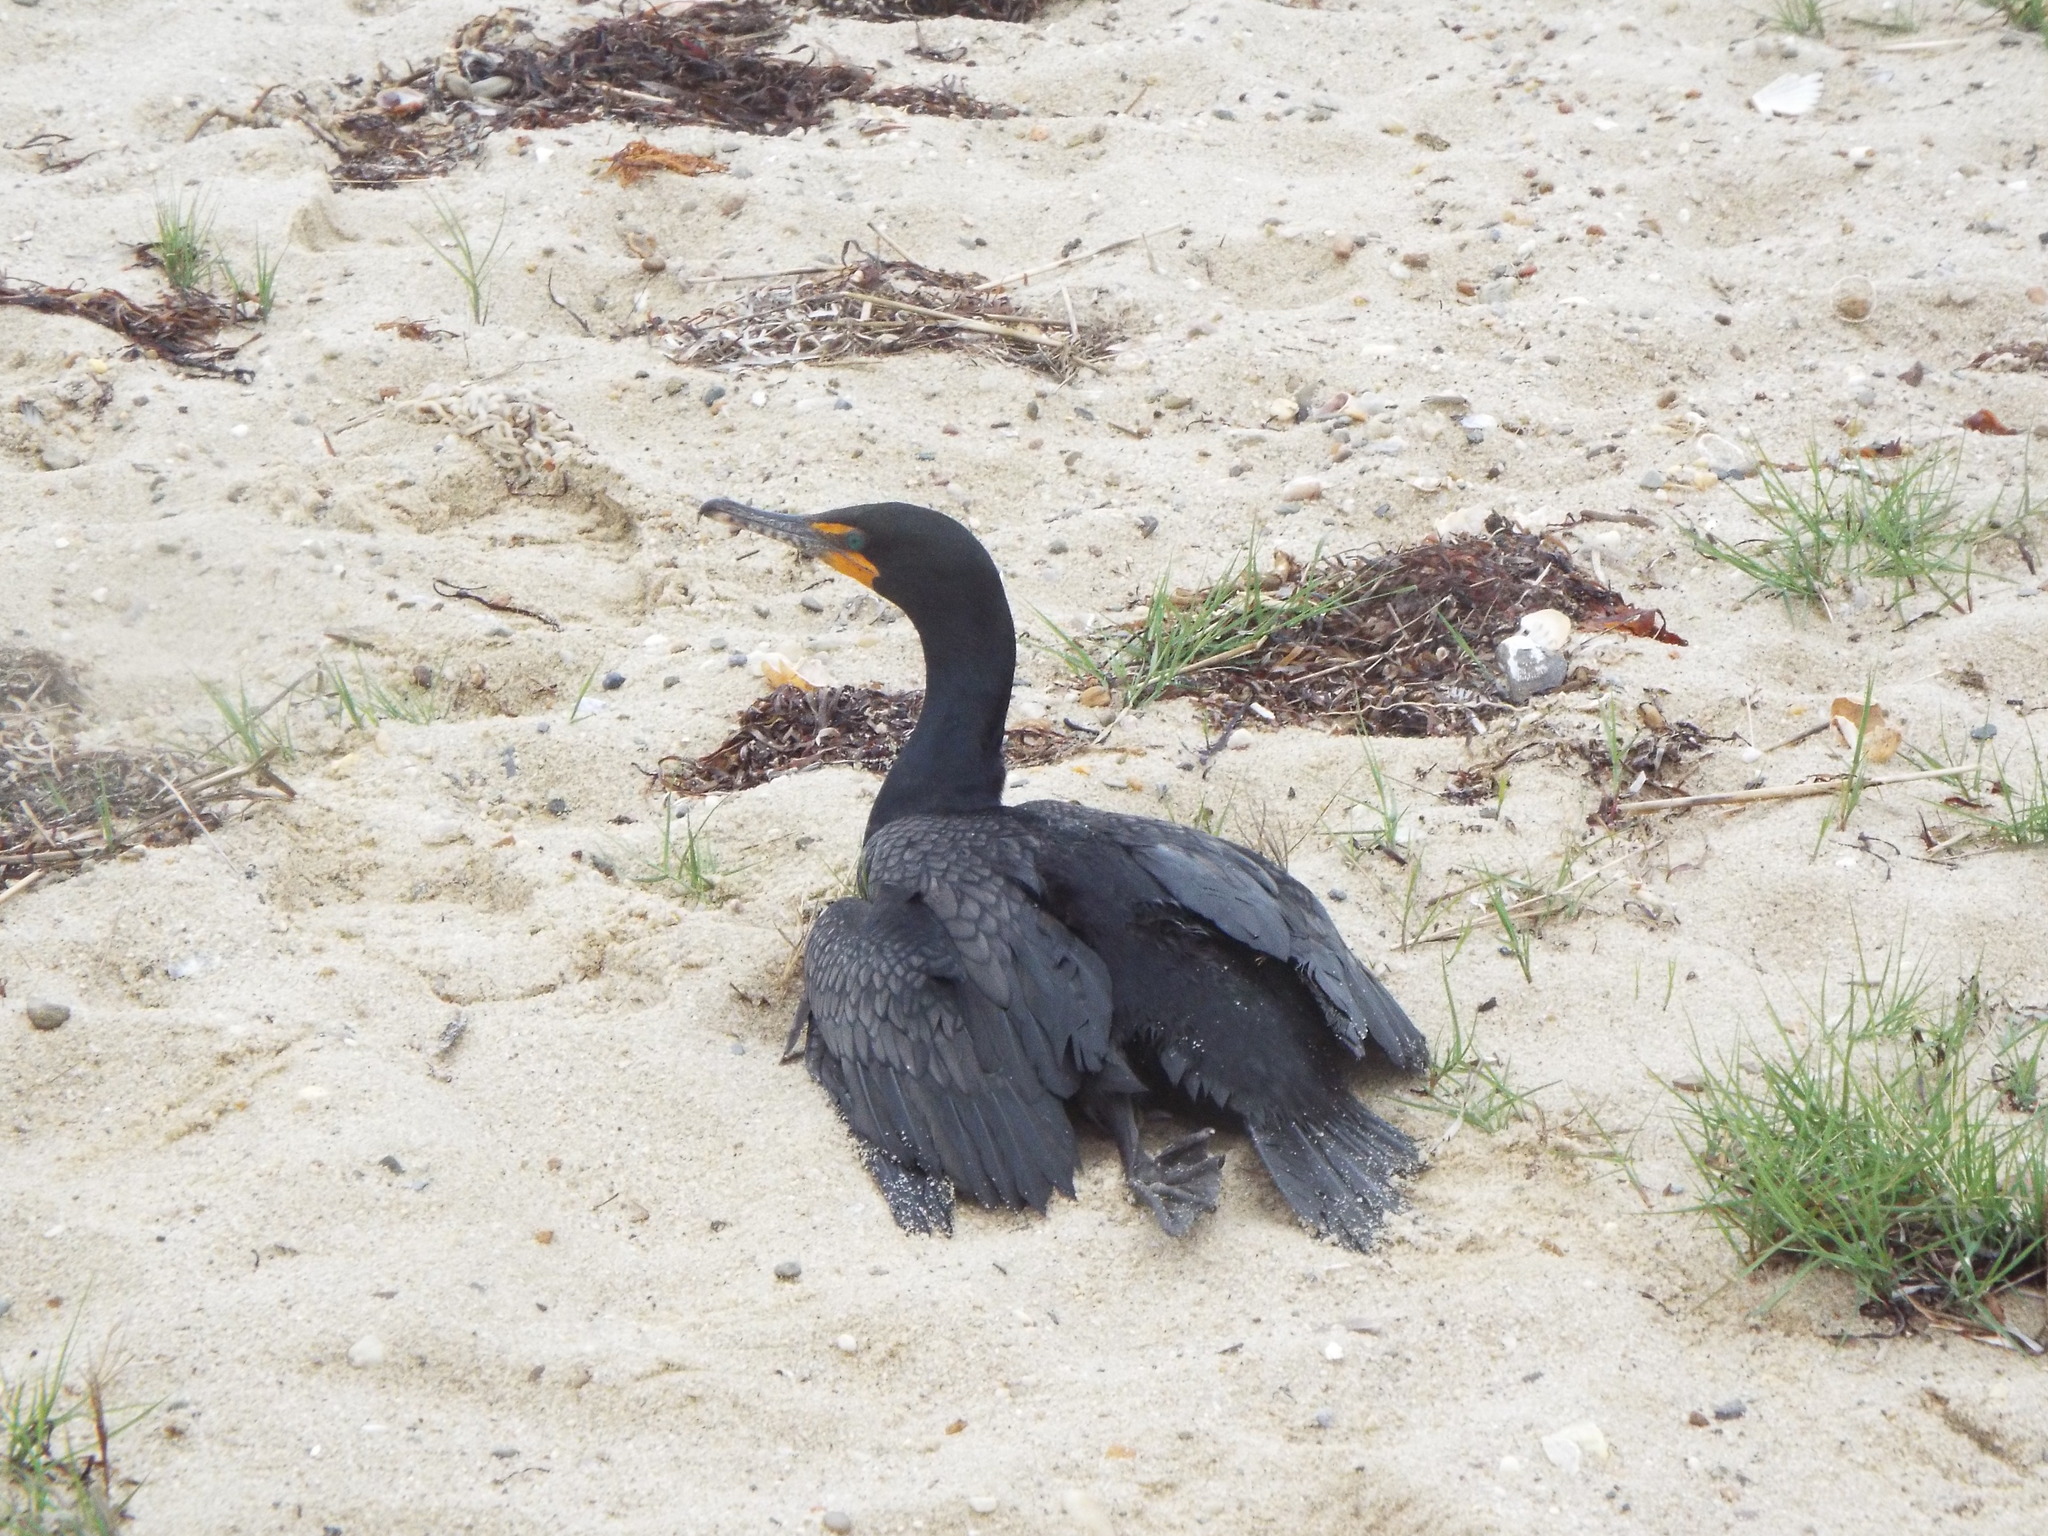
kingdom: Animalia
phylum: Chordata
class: Aves
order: Suliformes
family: Phalacrocoracidae
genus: Phalacrocorax
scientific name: Phalacrocorax auritus
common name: Double-crested cormorant
